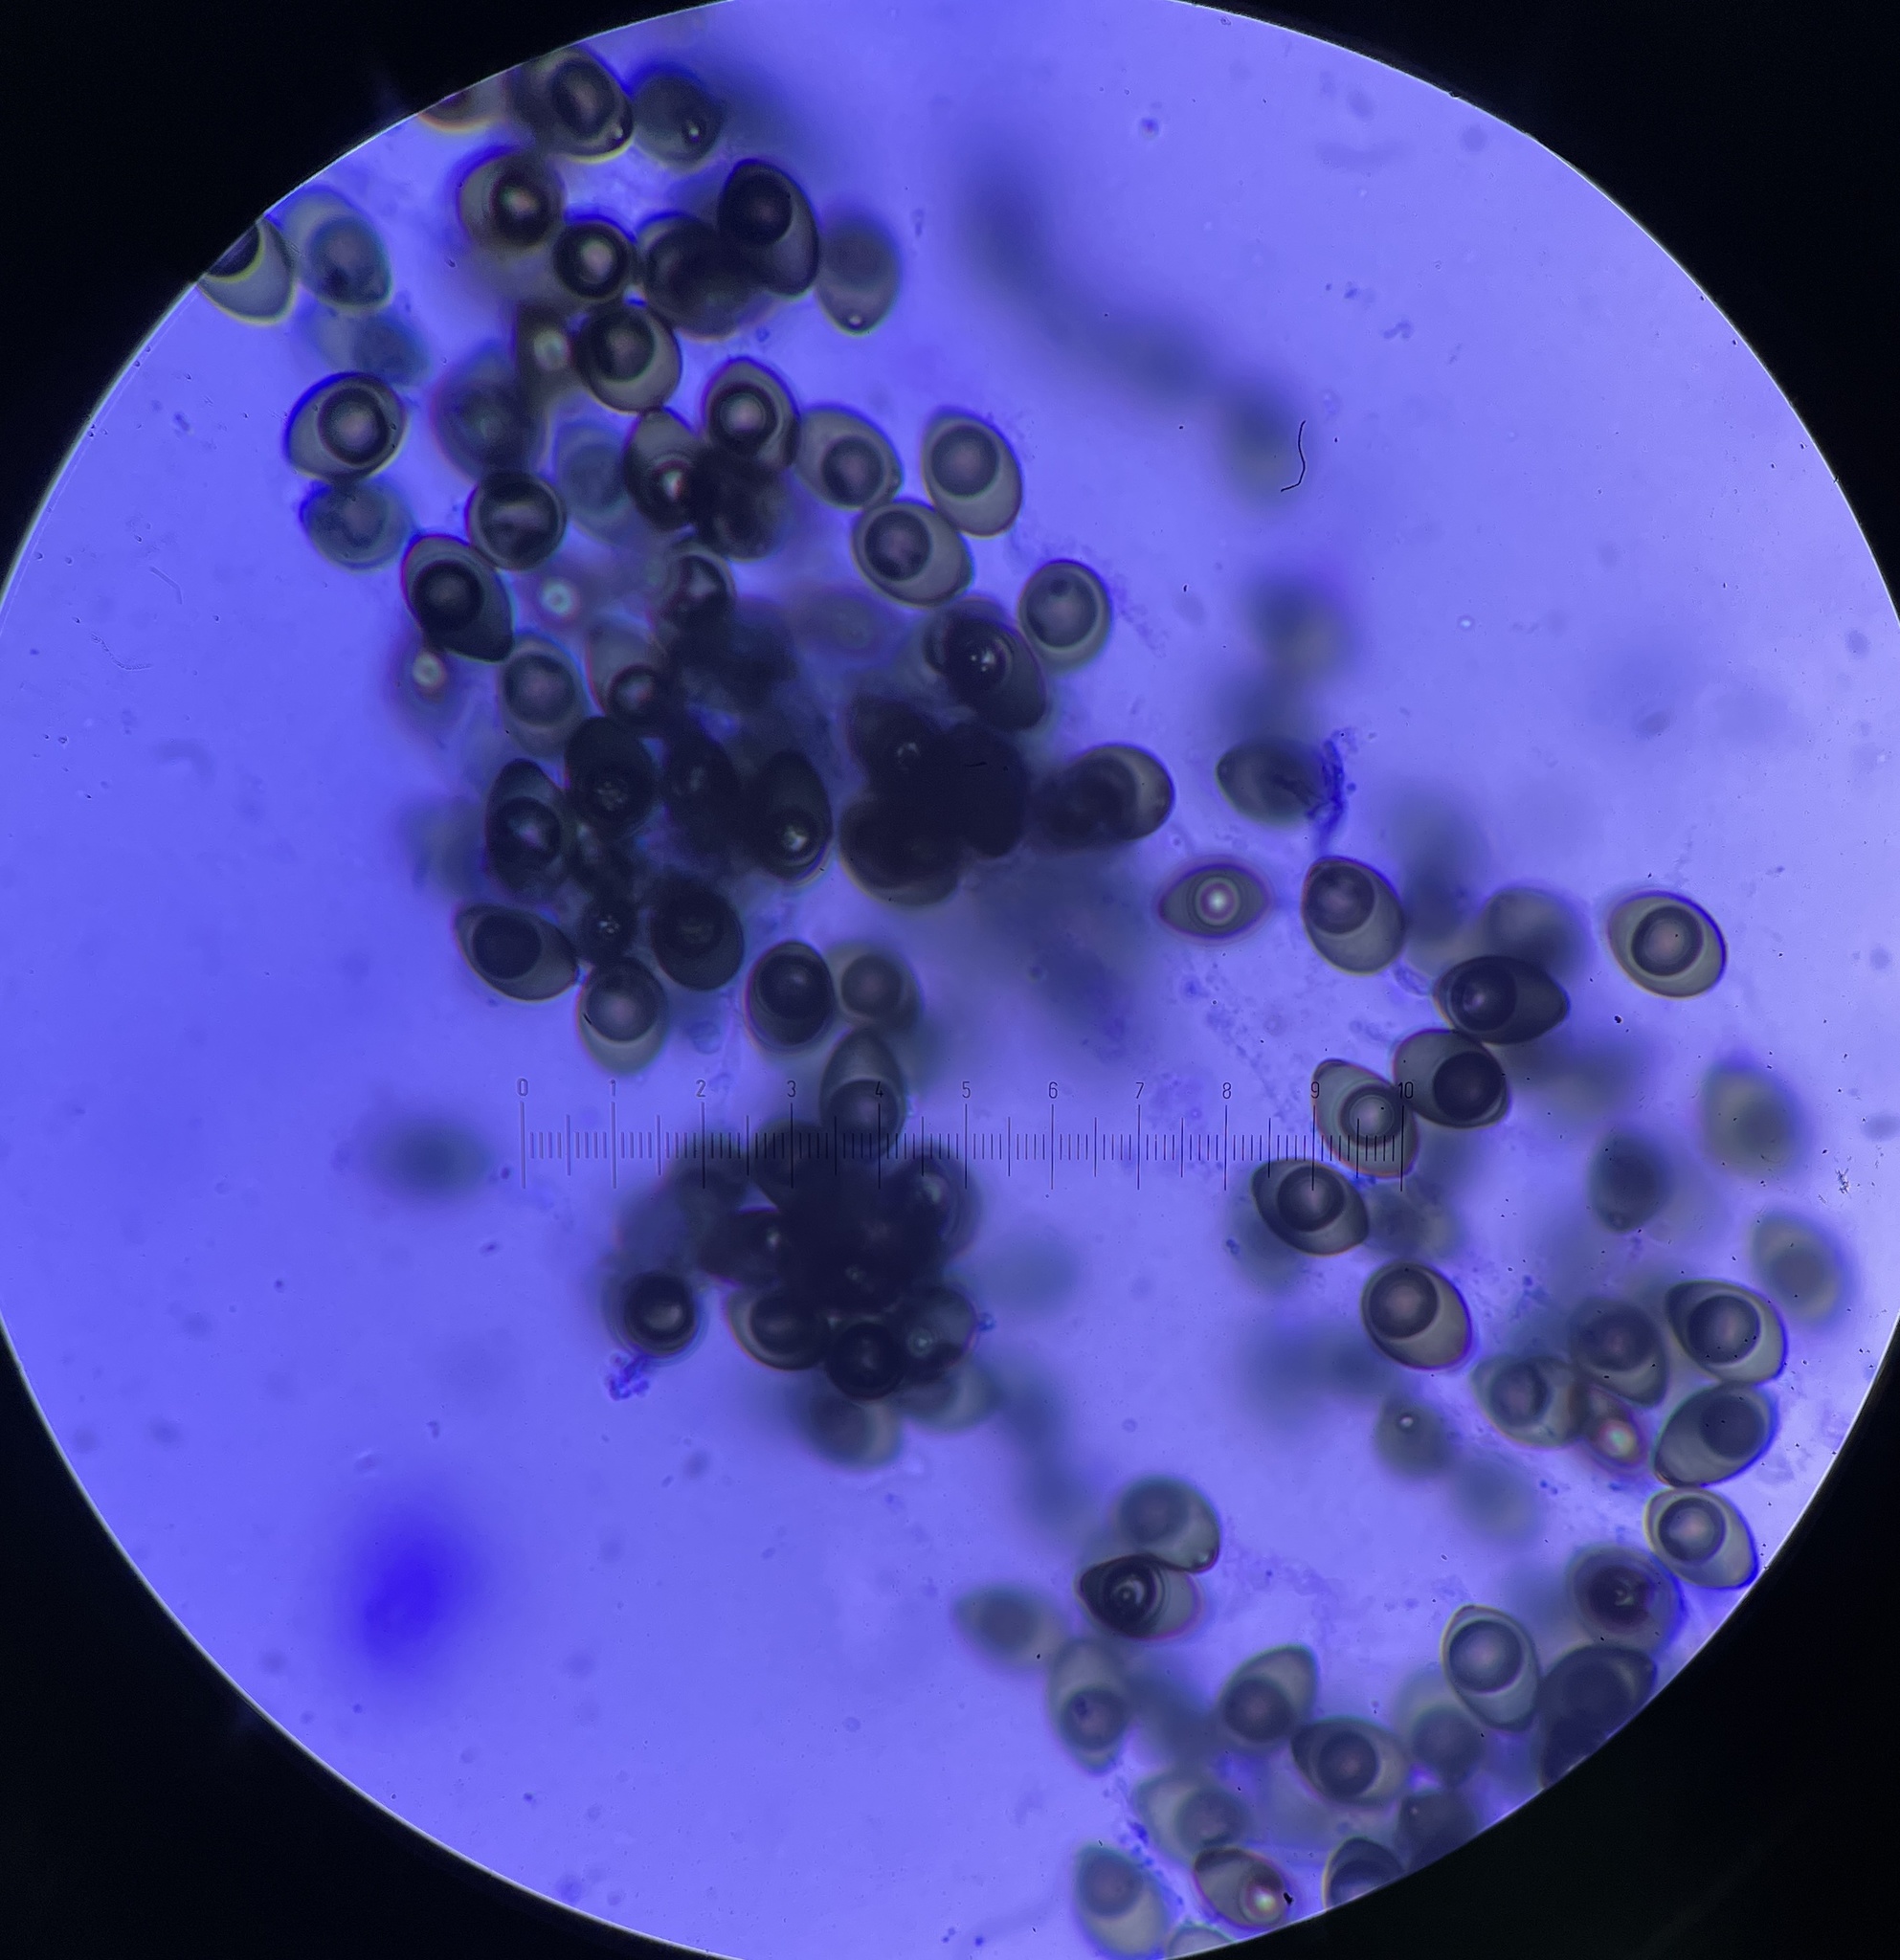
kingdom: Fungi
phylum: Ascomycota
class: Sordariomycetes
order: Sordariales
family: Schizotheciaceae
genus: Pseudoechria
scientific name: Pseudoechria curvicolla
